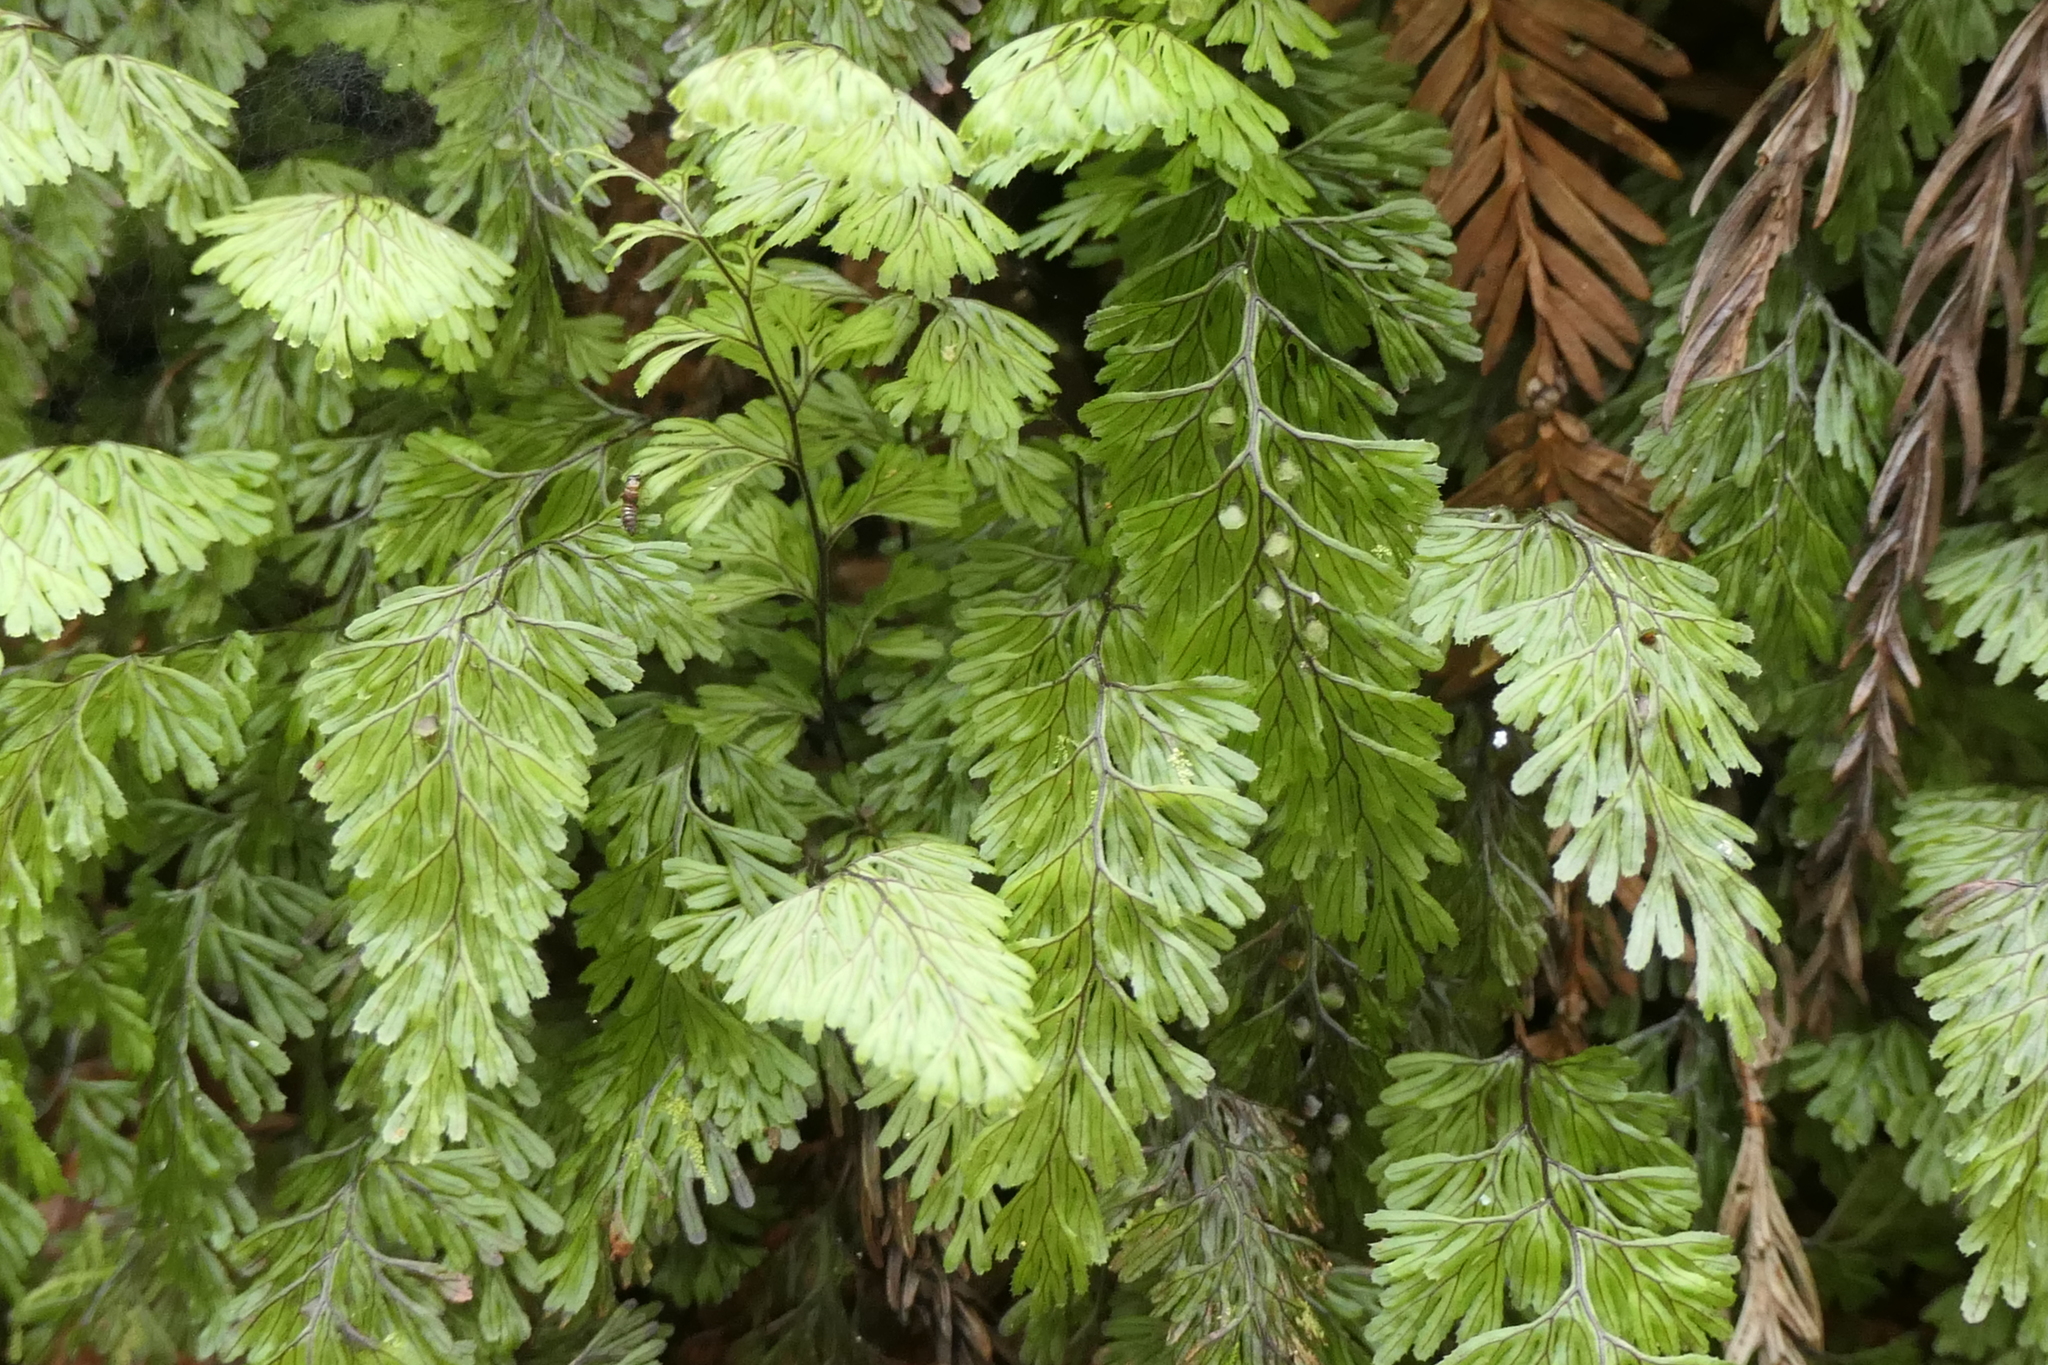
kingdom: Plantae
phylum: Tracheophyta
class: Polypodiopsida
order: Hymenophyllales
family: Hymenophyllaceae
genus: Hymenophyllum
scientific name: Hymenophyllum tunbrigense
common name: Tunbridge filmy fern
